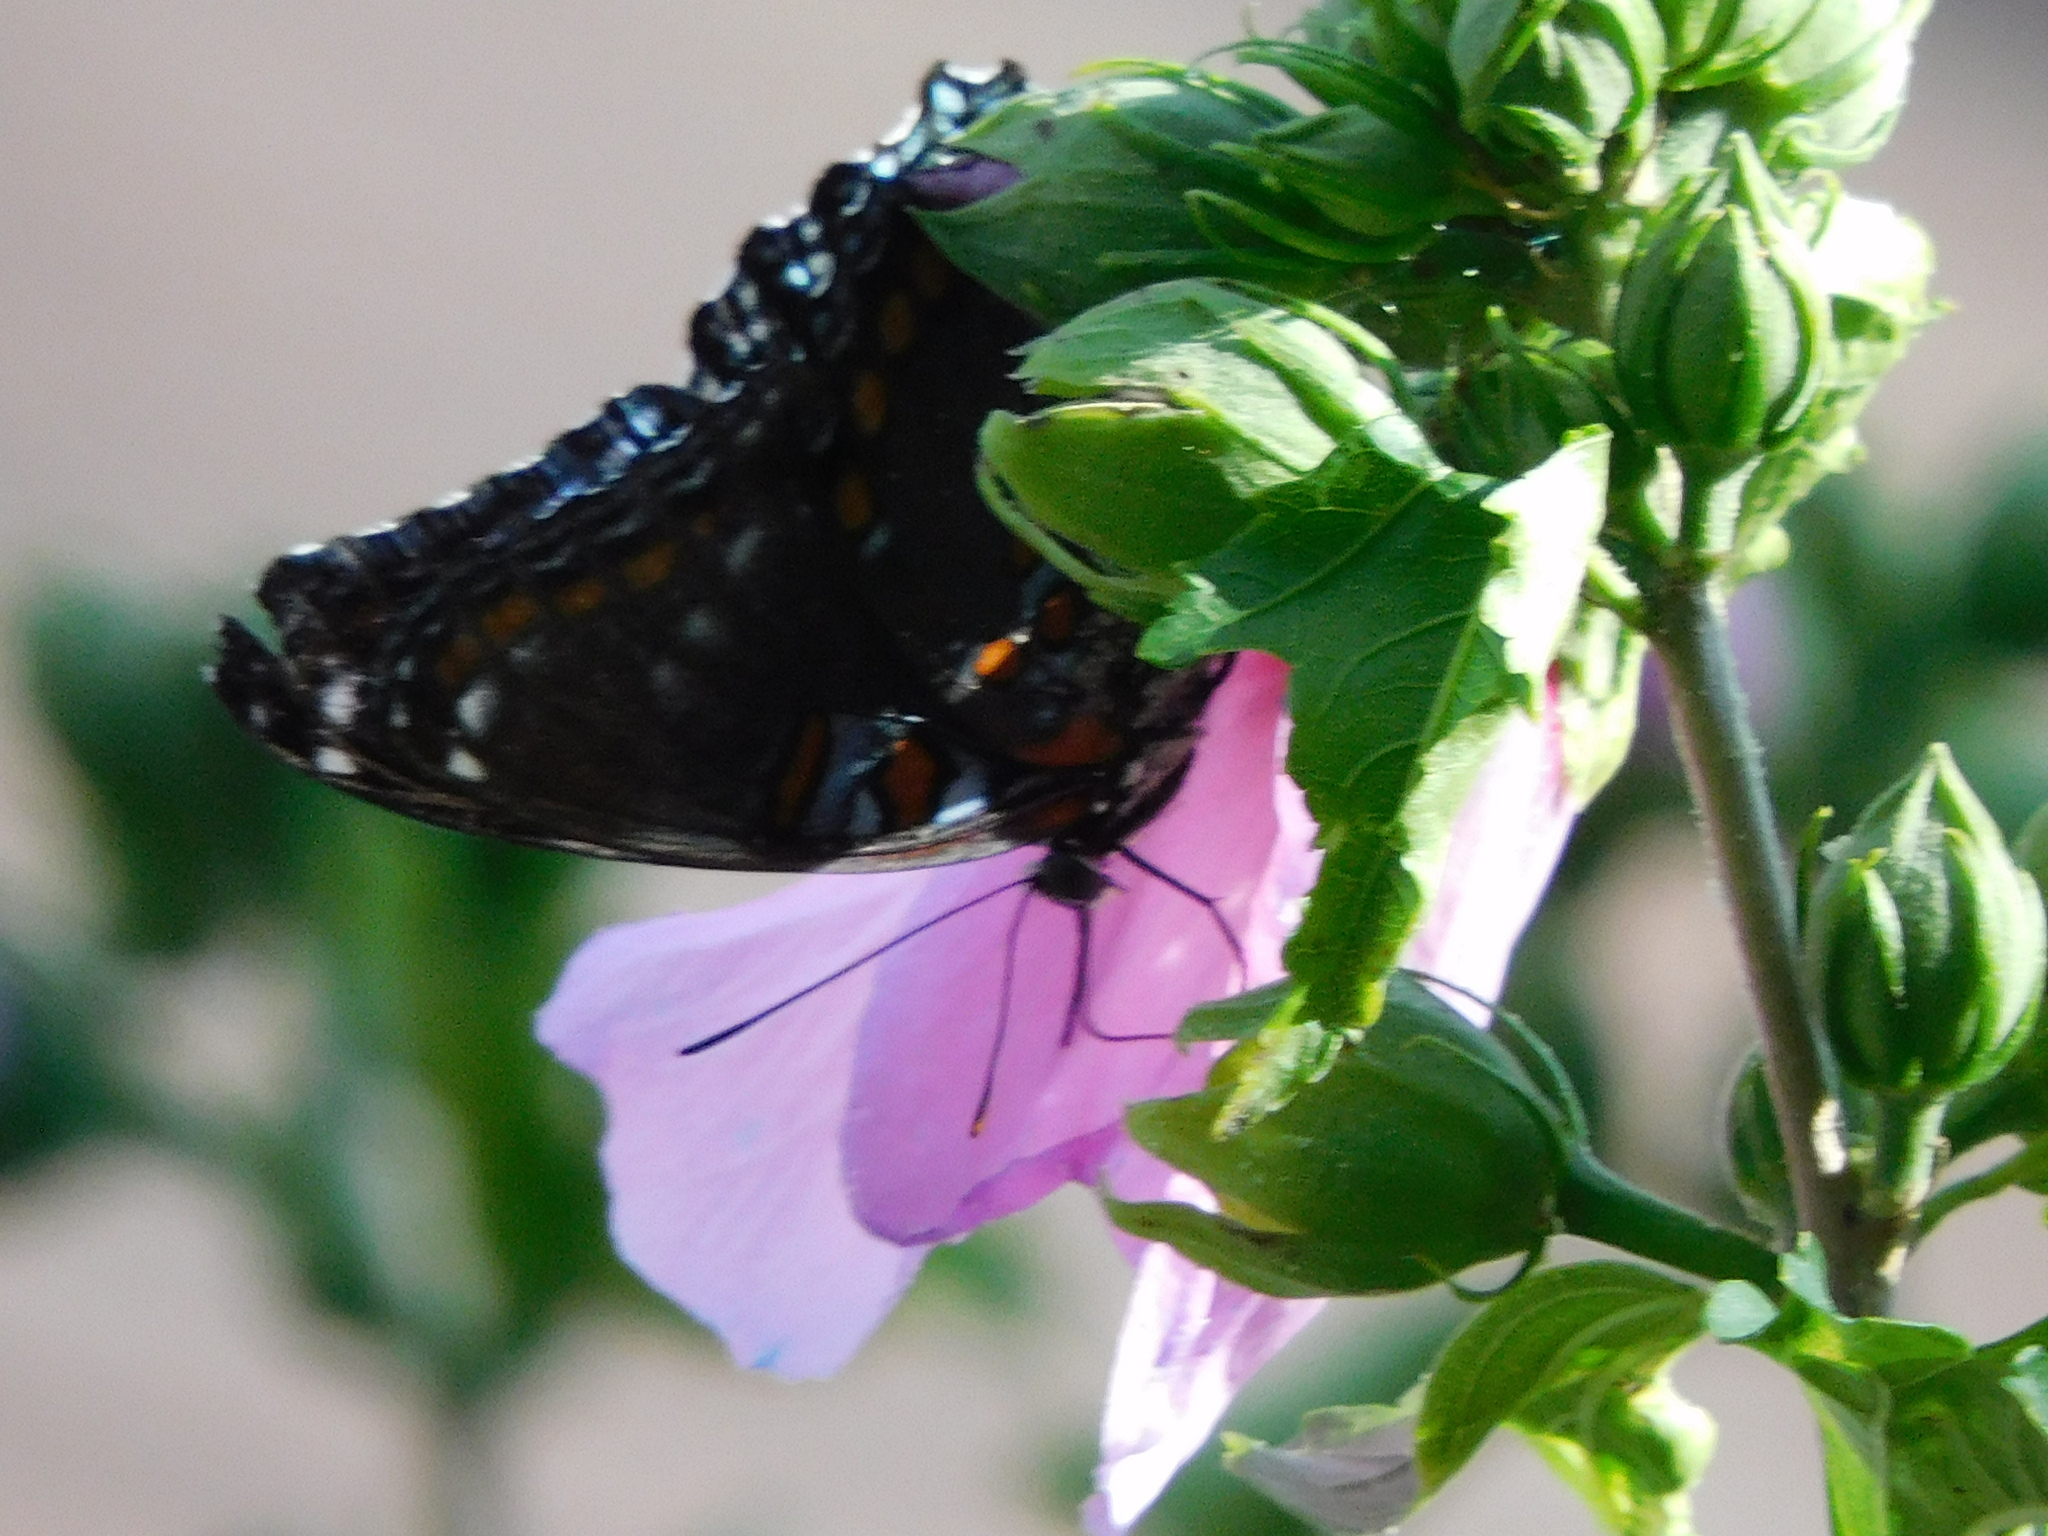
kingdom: Animalia
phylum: Arthropoda
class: Insecta
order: Lepidoptera
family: Nymphalidae
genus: Limenitis
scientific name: Limenitis arthemis
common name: Red-spotted admiral
